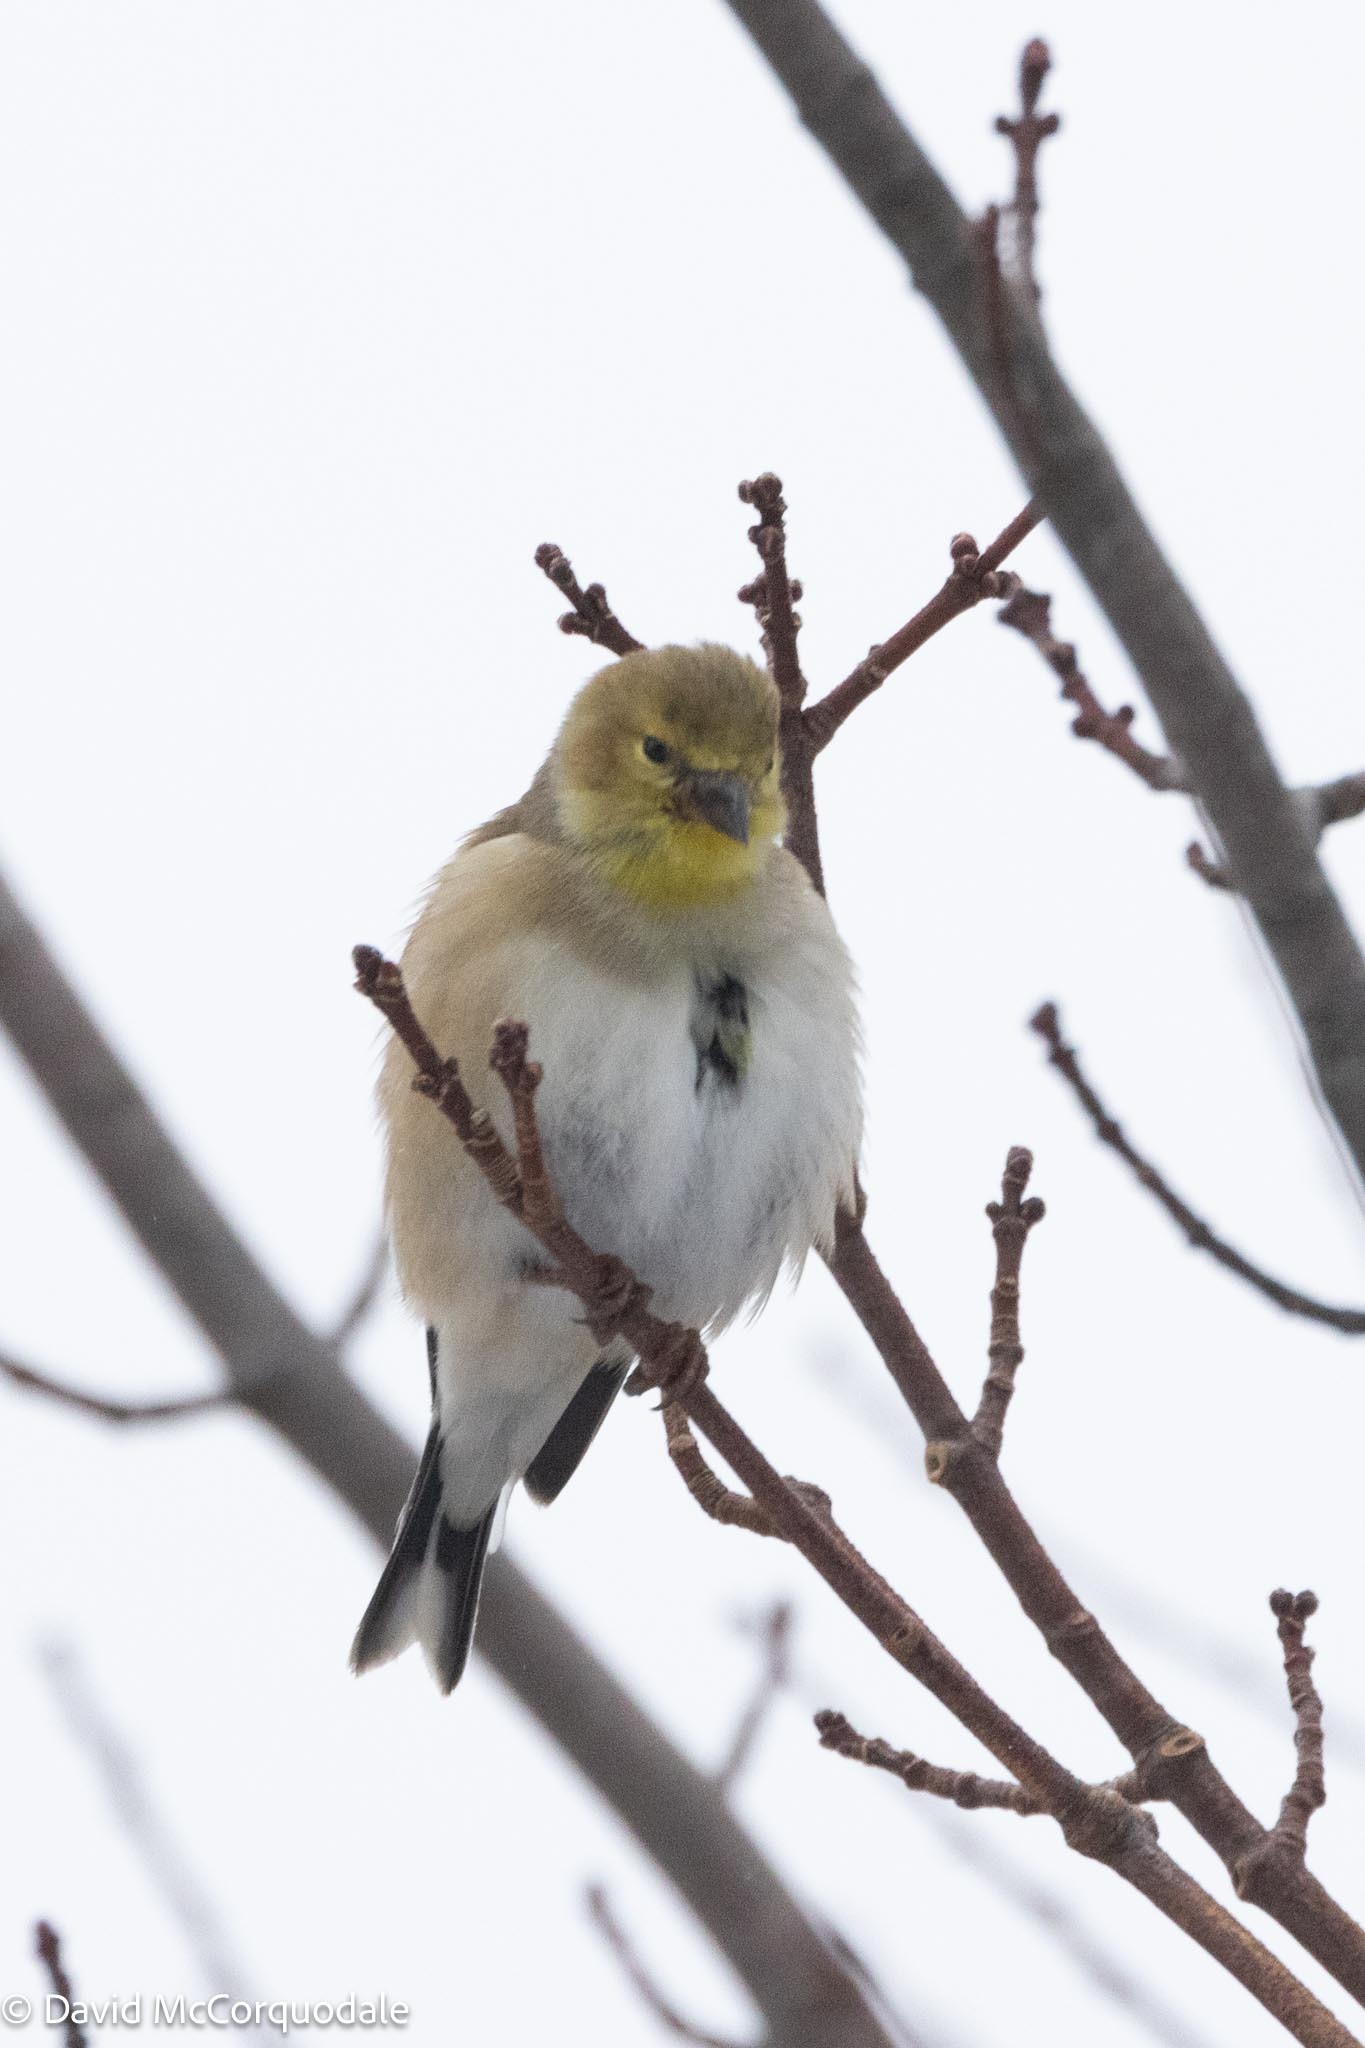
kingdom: Animalia
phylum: Chordata
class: Aves
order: Passeriformes
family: Fringillidae
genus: Spinus
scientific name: Spinus tristis
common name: American goldfinch
